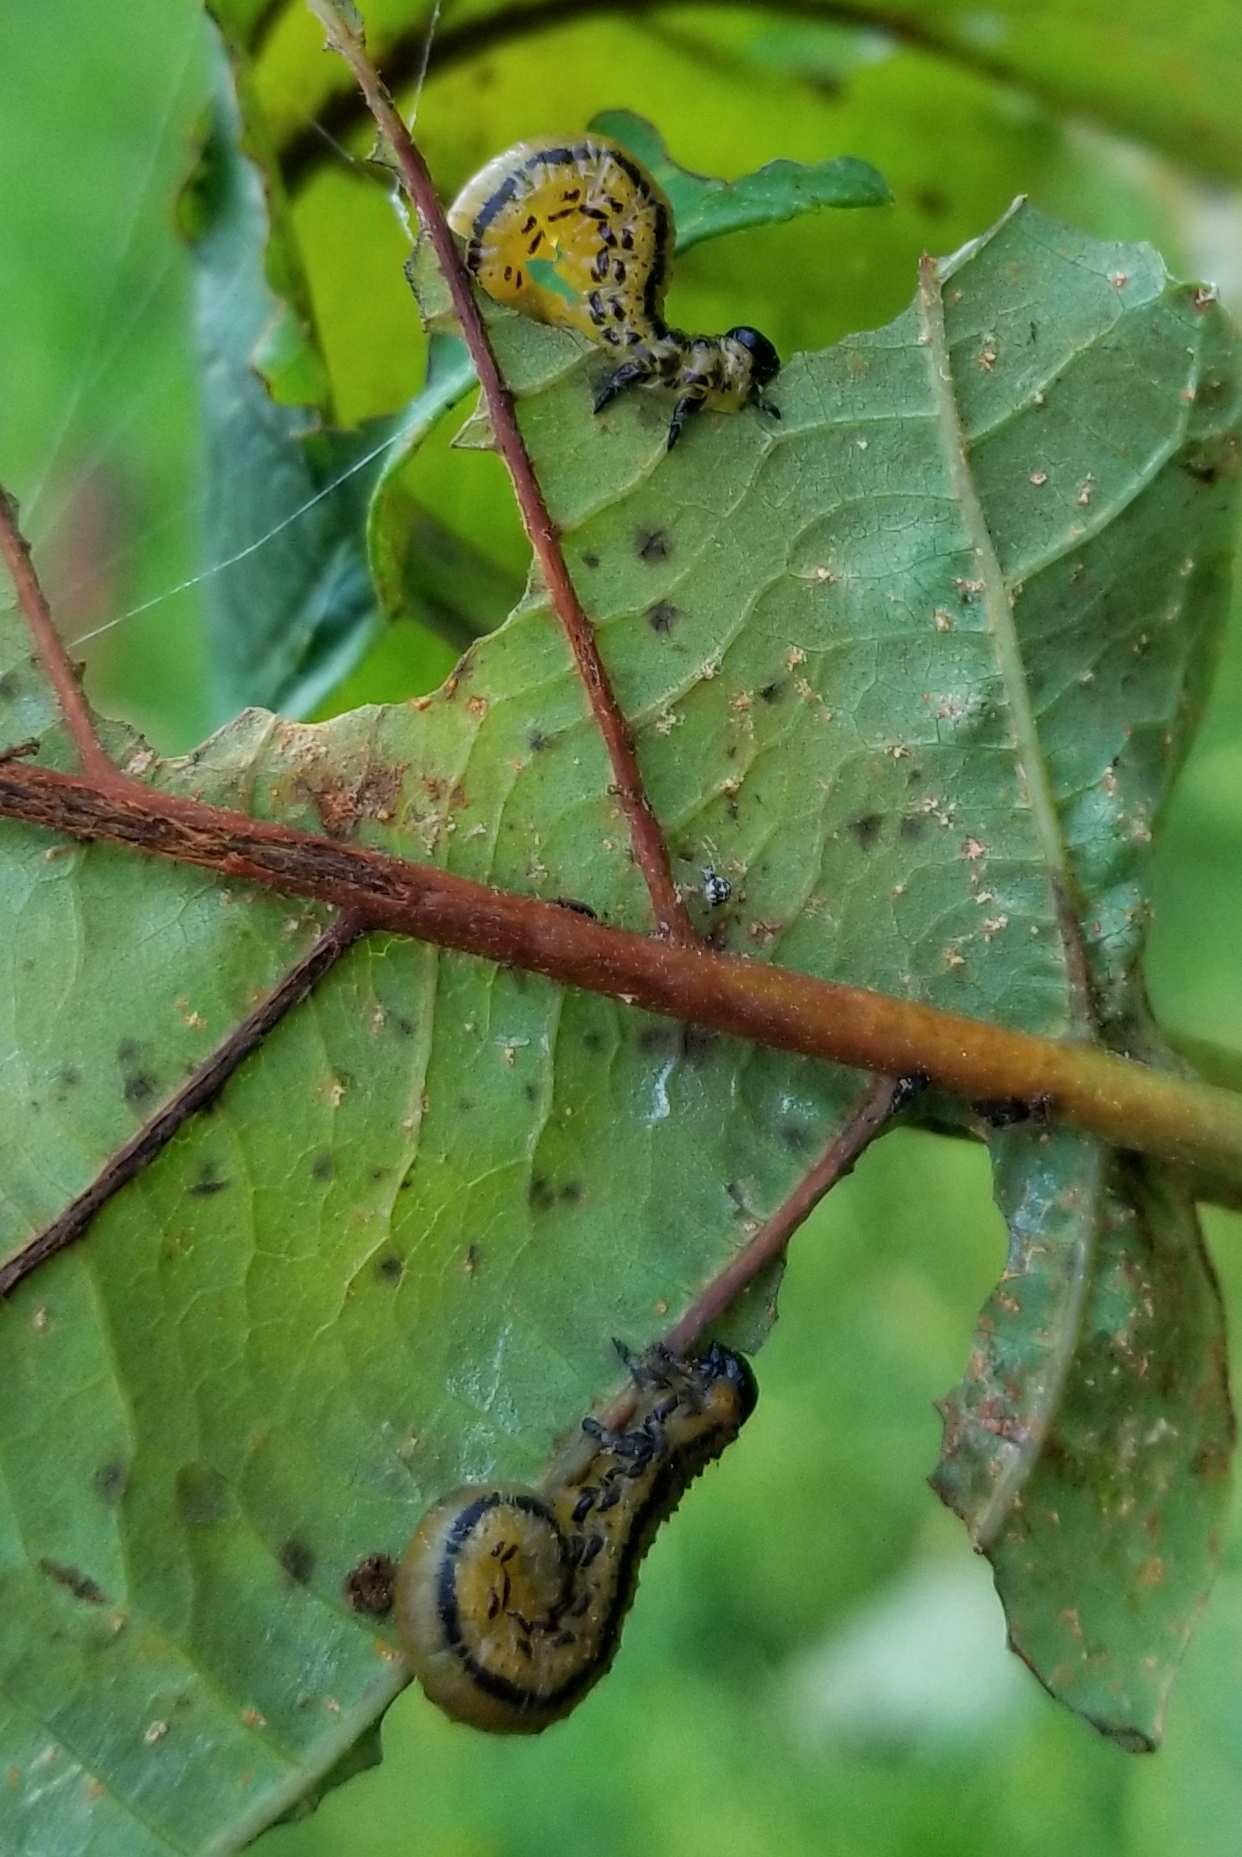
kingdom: Animalia
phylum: Arthropoda
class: Insecta
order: Hymenoptera
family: Tenthredinidae
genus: Hemichroa
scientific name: Hemichroa crocea
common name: Striped alder sawfly
